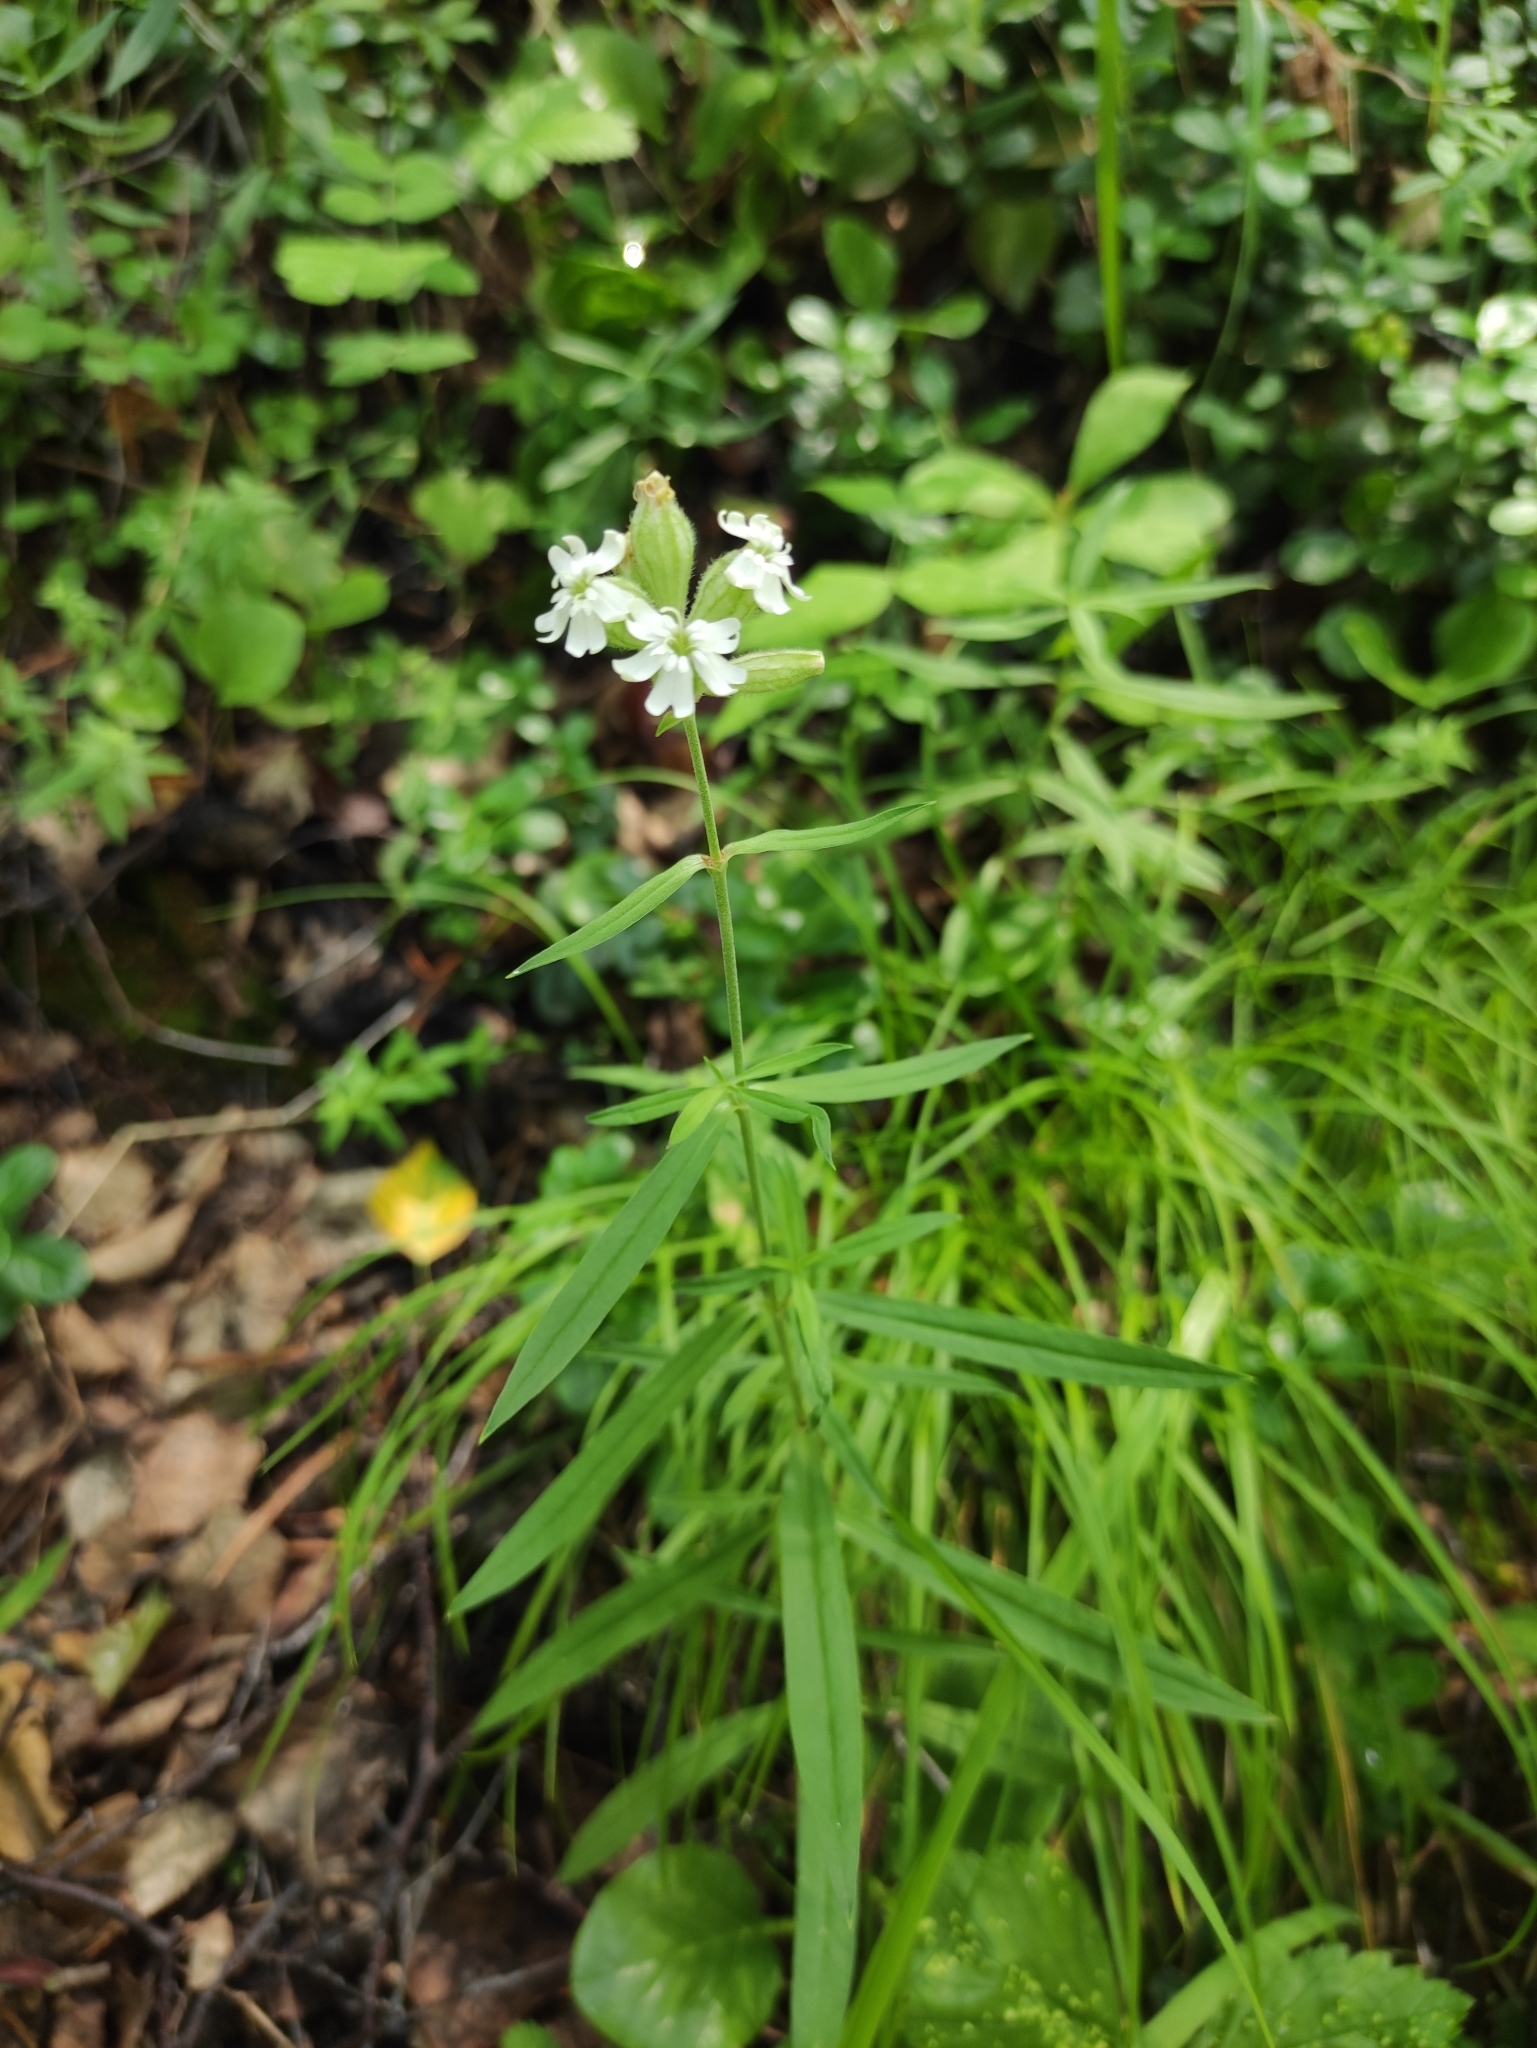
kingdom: Plantae
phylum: Tracheophyta
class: Magnoliopsida
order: Caryophyllales
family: Caryophyllaceae
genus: Silene
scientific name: Silene amoena
